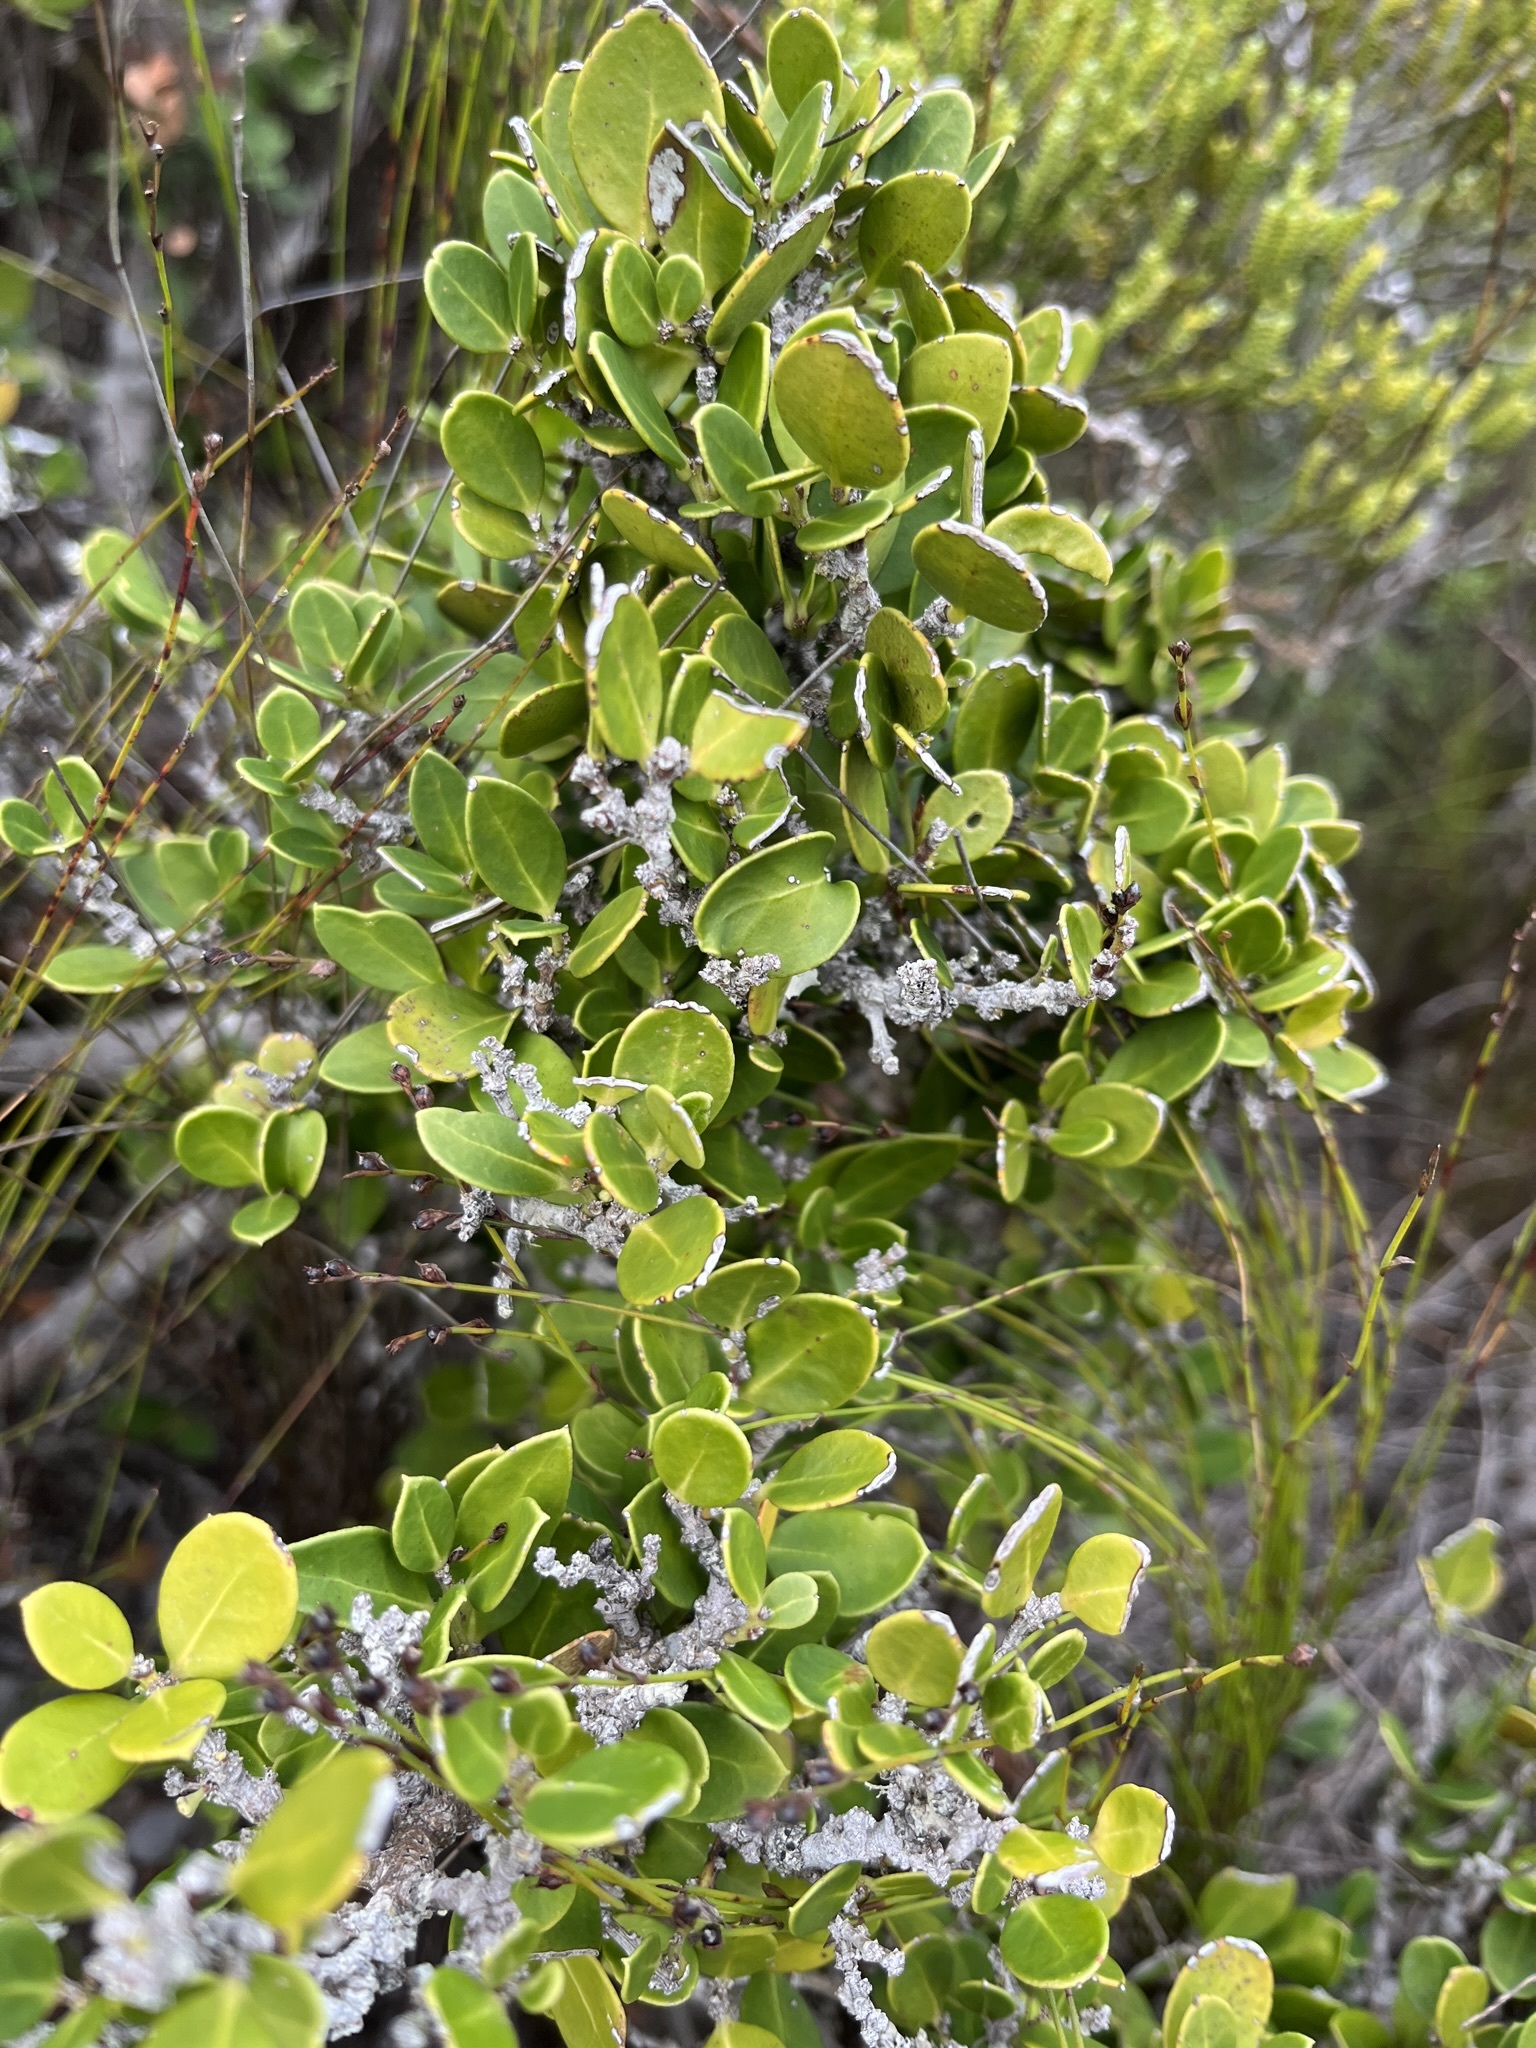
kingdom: Plantae
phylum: Tracheophyta
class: Magnoliopsida
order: Celastrales
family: Celastraceae
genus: Gymnosporia
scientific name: Gymnosporia lucida
